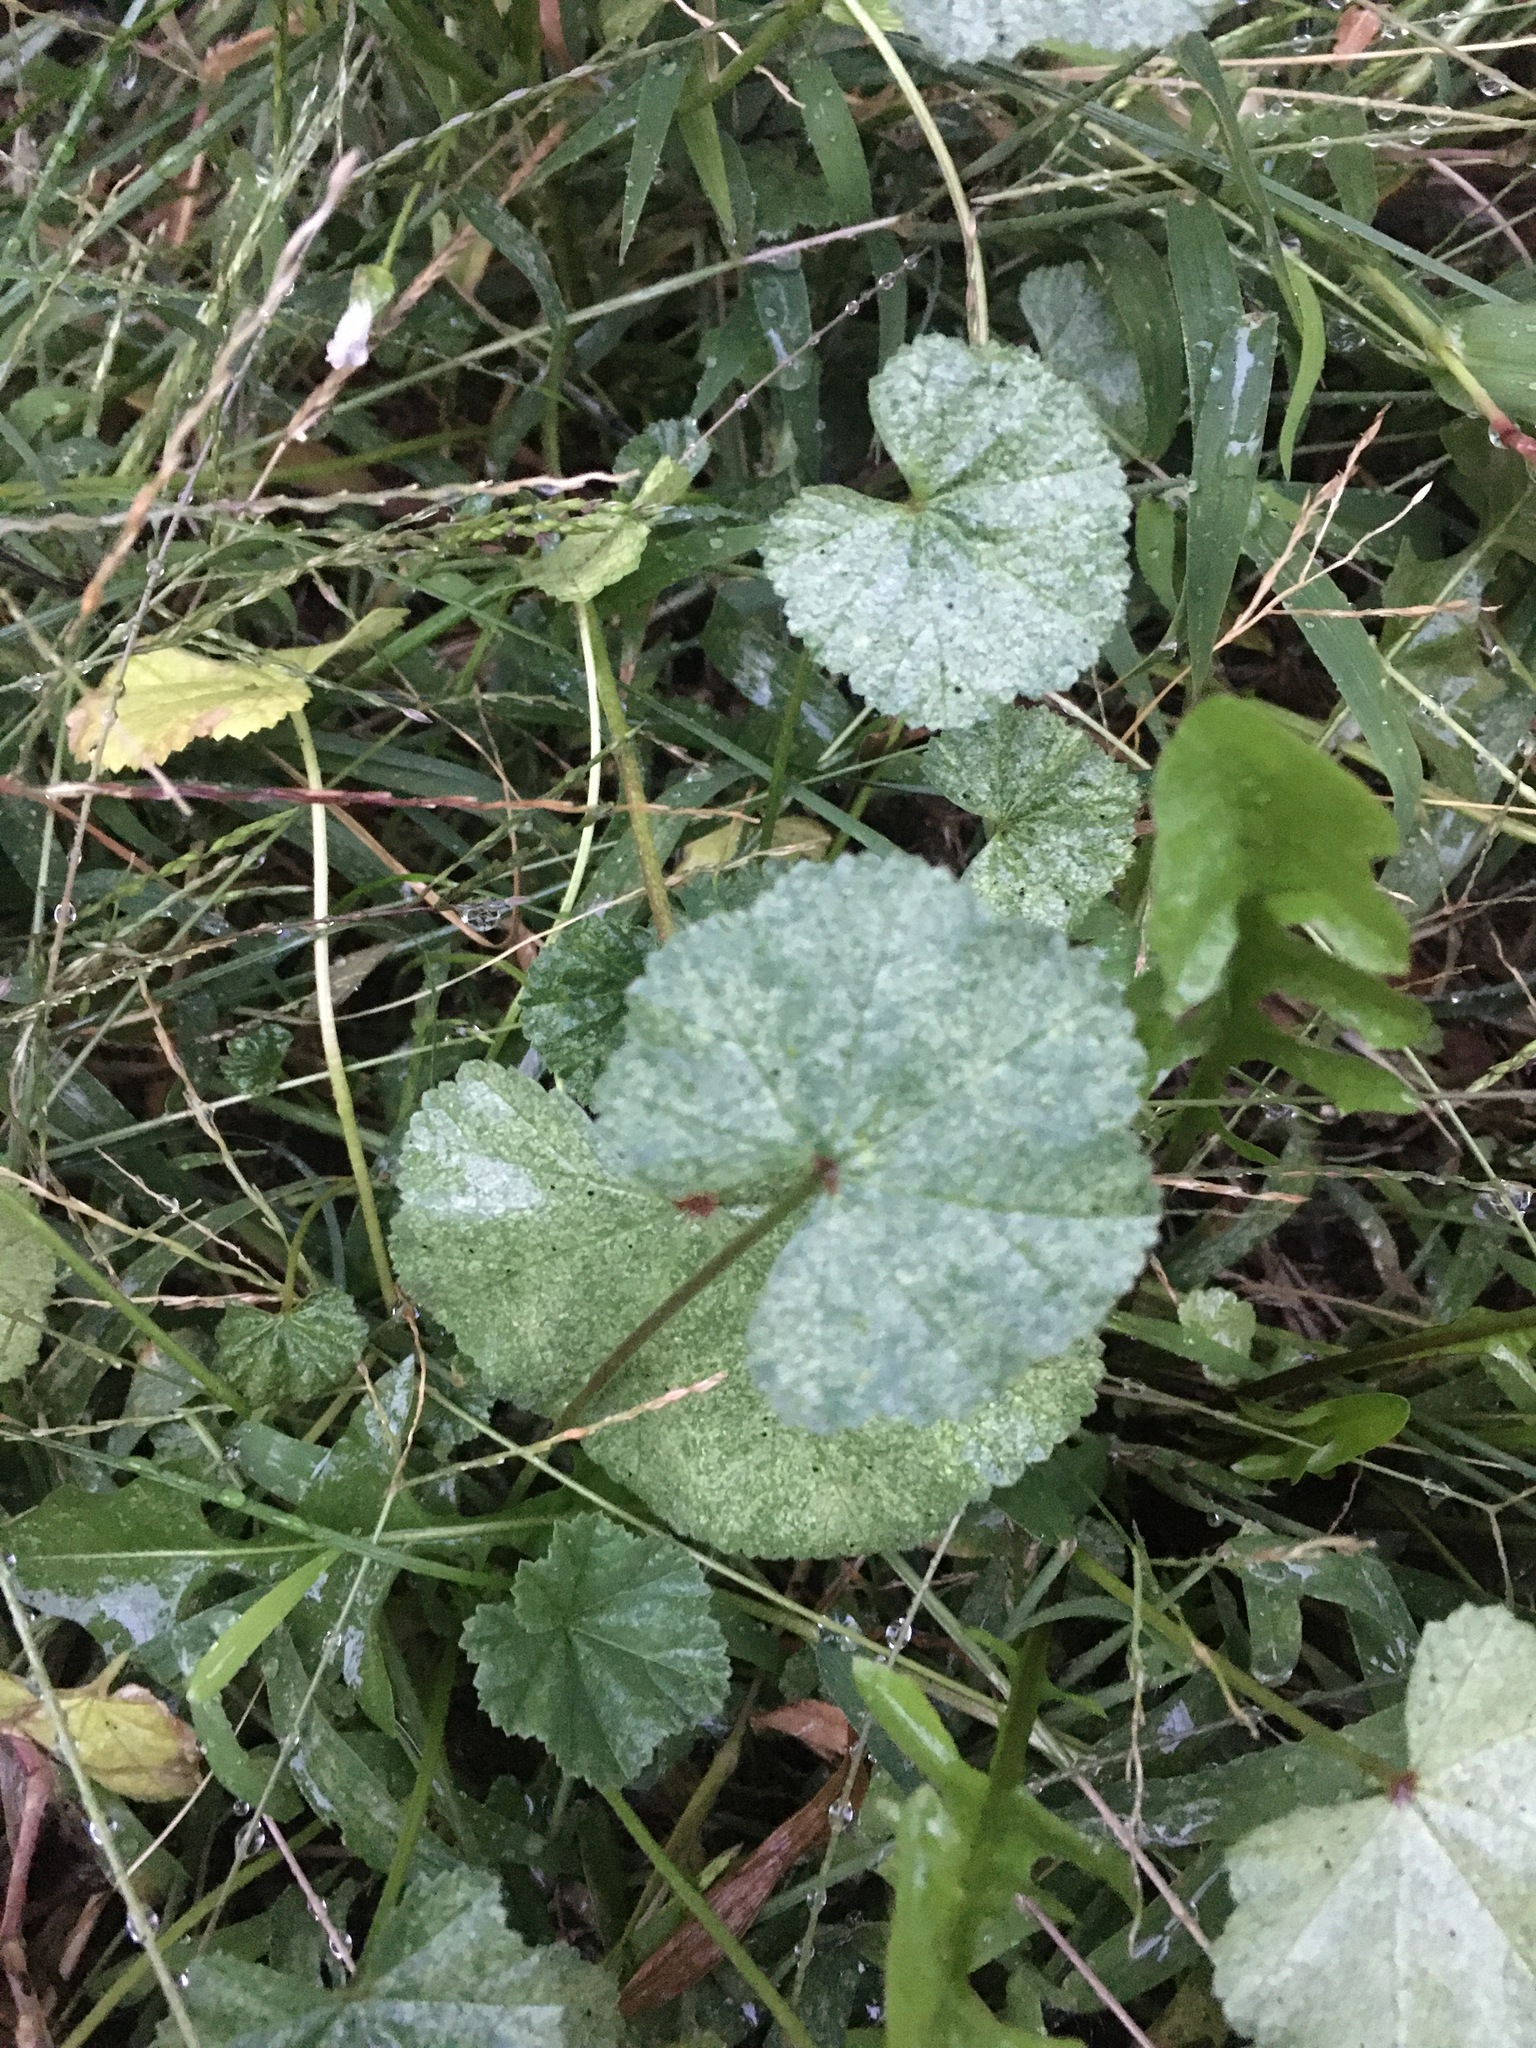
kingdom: Plantae
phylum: Tracheophyta
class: Magnoliopsida
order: Malvales
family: Malvaceae
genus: Malva
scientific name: Malva neglecta
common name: Common mallow
